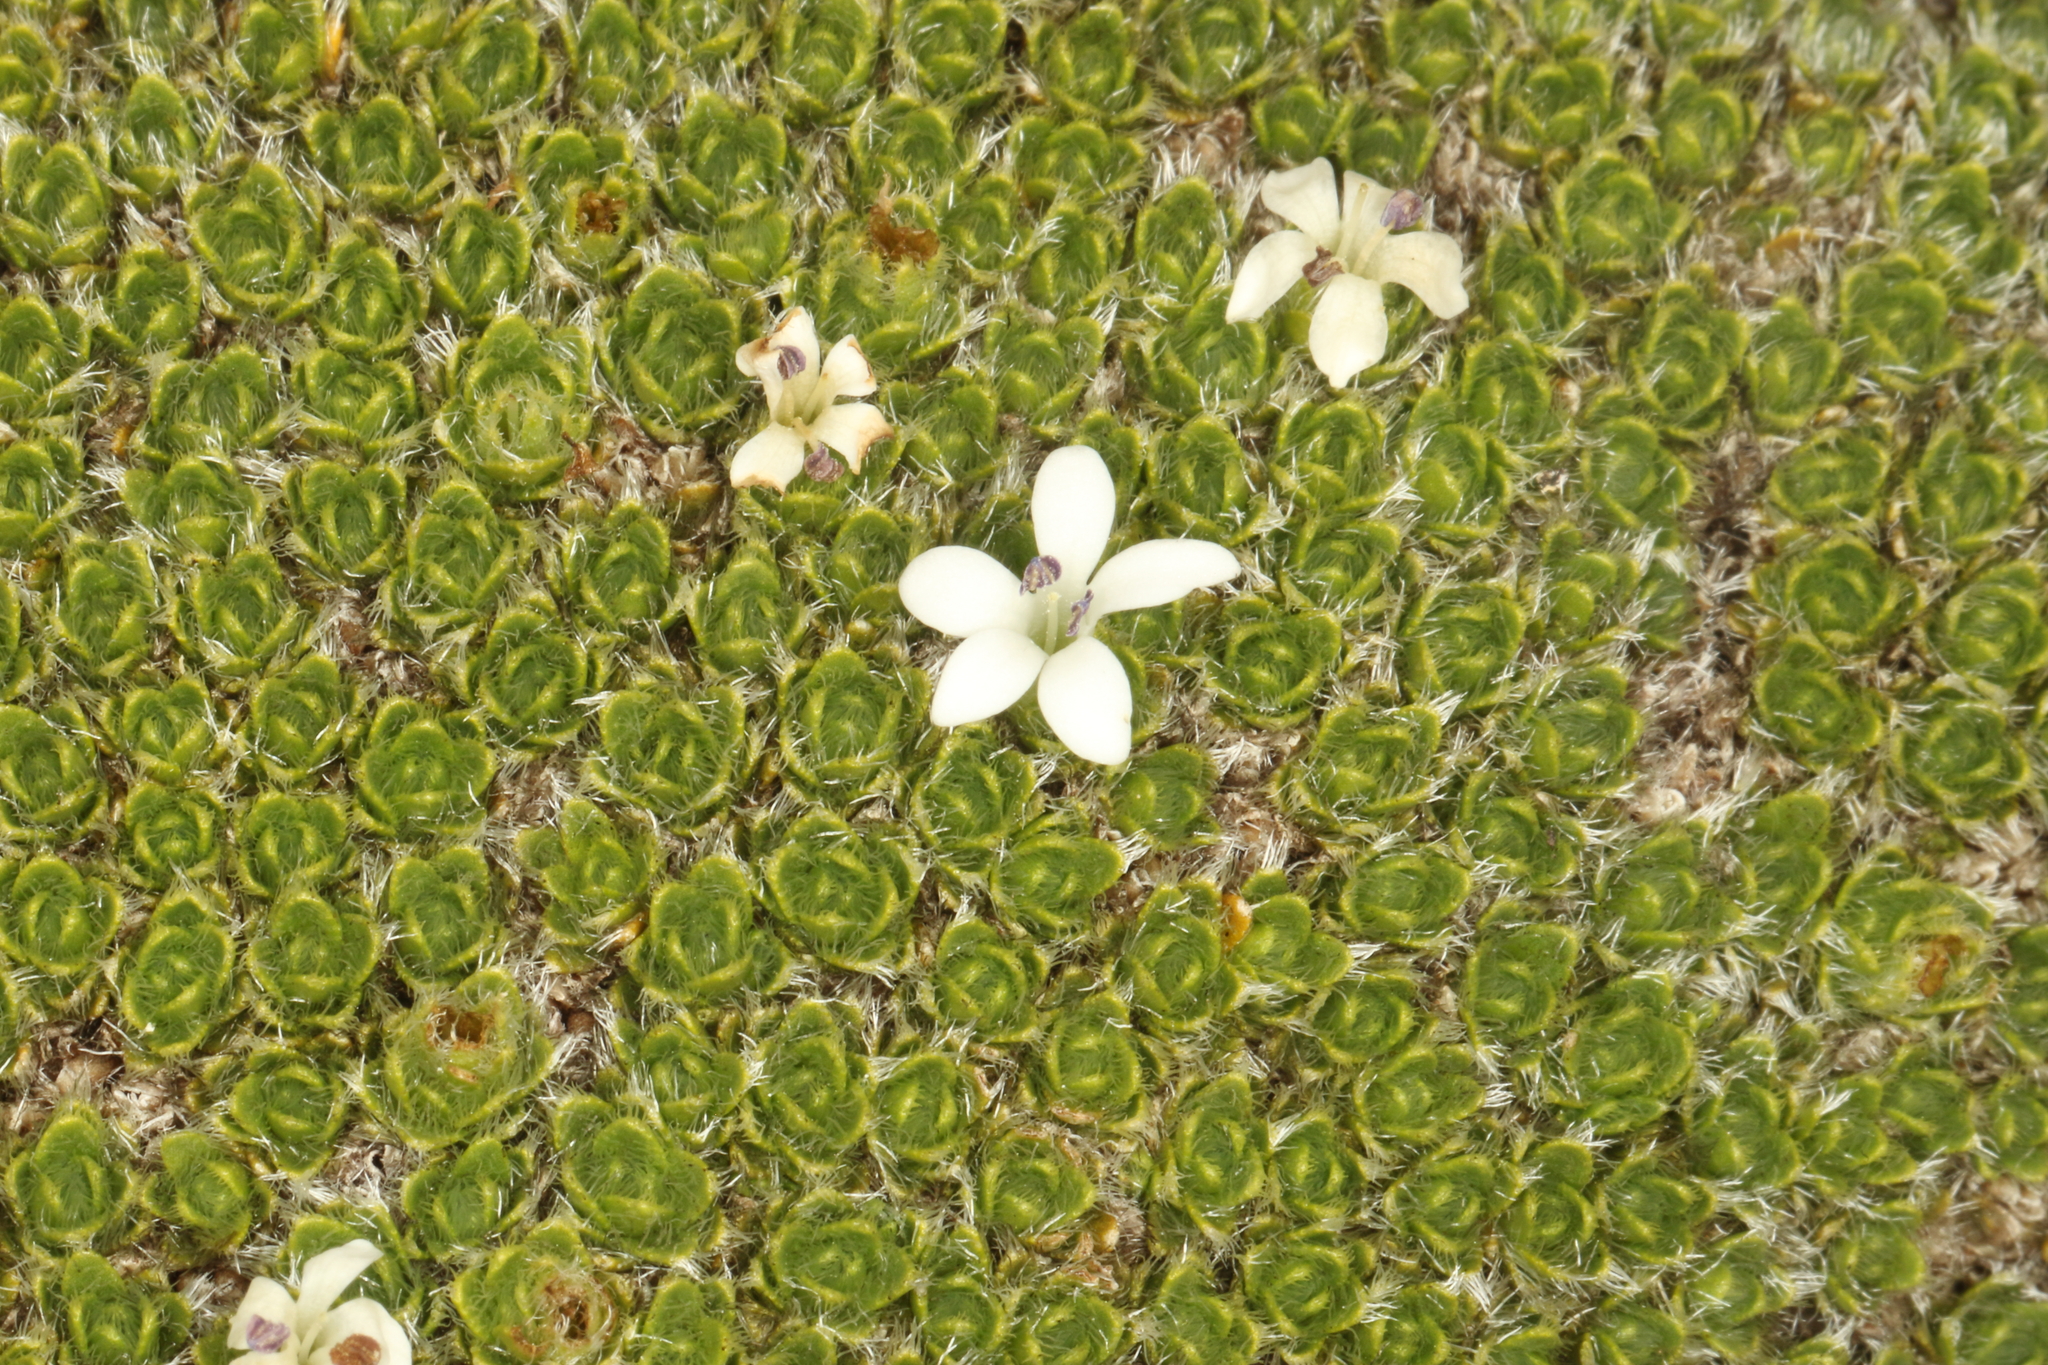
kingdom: Plantae
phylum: Tracheophyta
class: Magnoliopsida
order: Lamiales
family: Plantaginaceae
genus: Veronica
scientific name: Veronica pulvinaris
